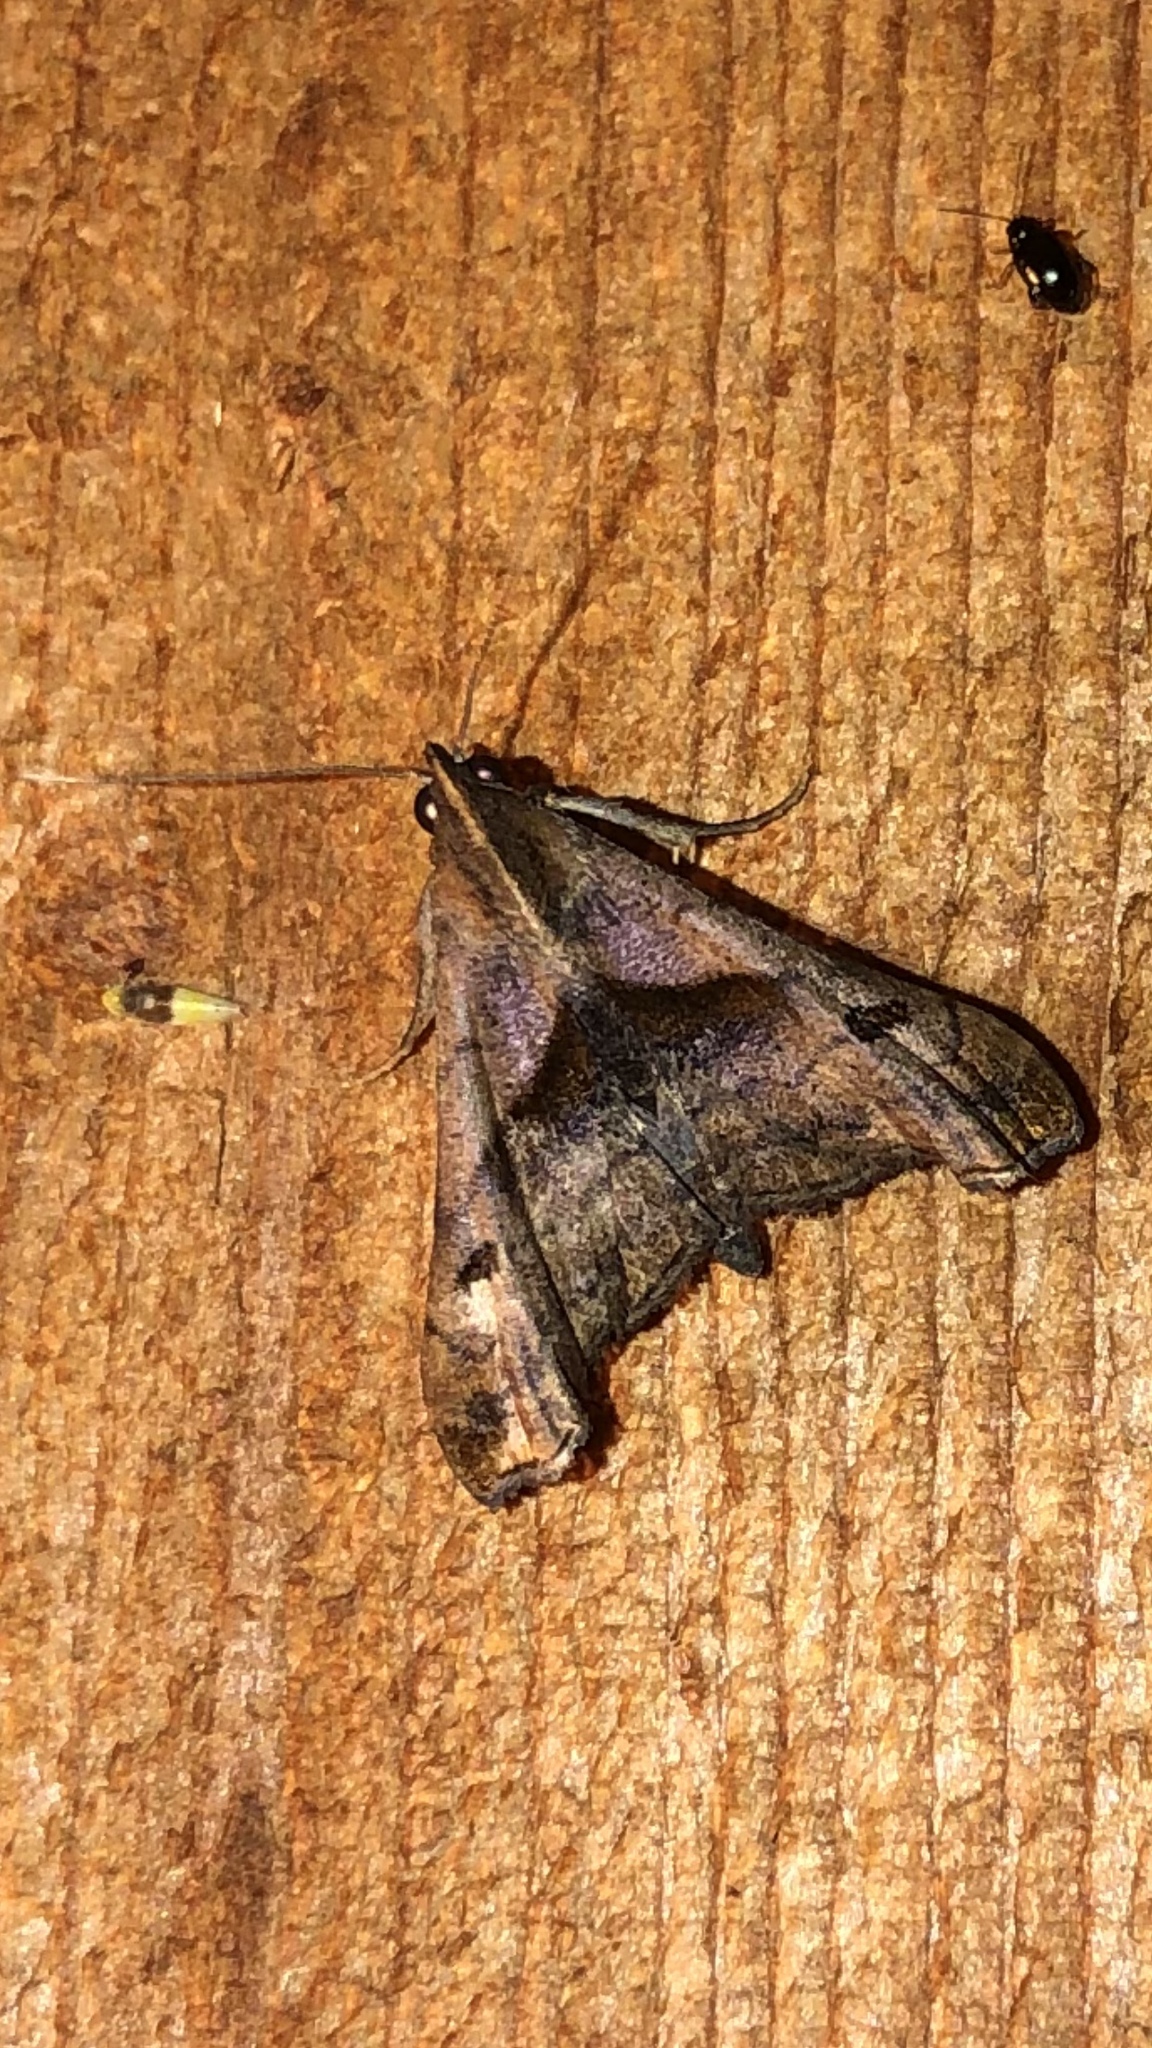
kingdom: Animalia
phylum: Arthropoda
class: Insecta
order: Lepidoptera
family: Erebidae
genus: Palthis
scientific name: Palthis angulalis
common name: Dark-spotted palthis moth
